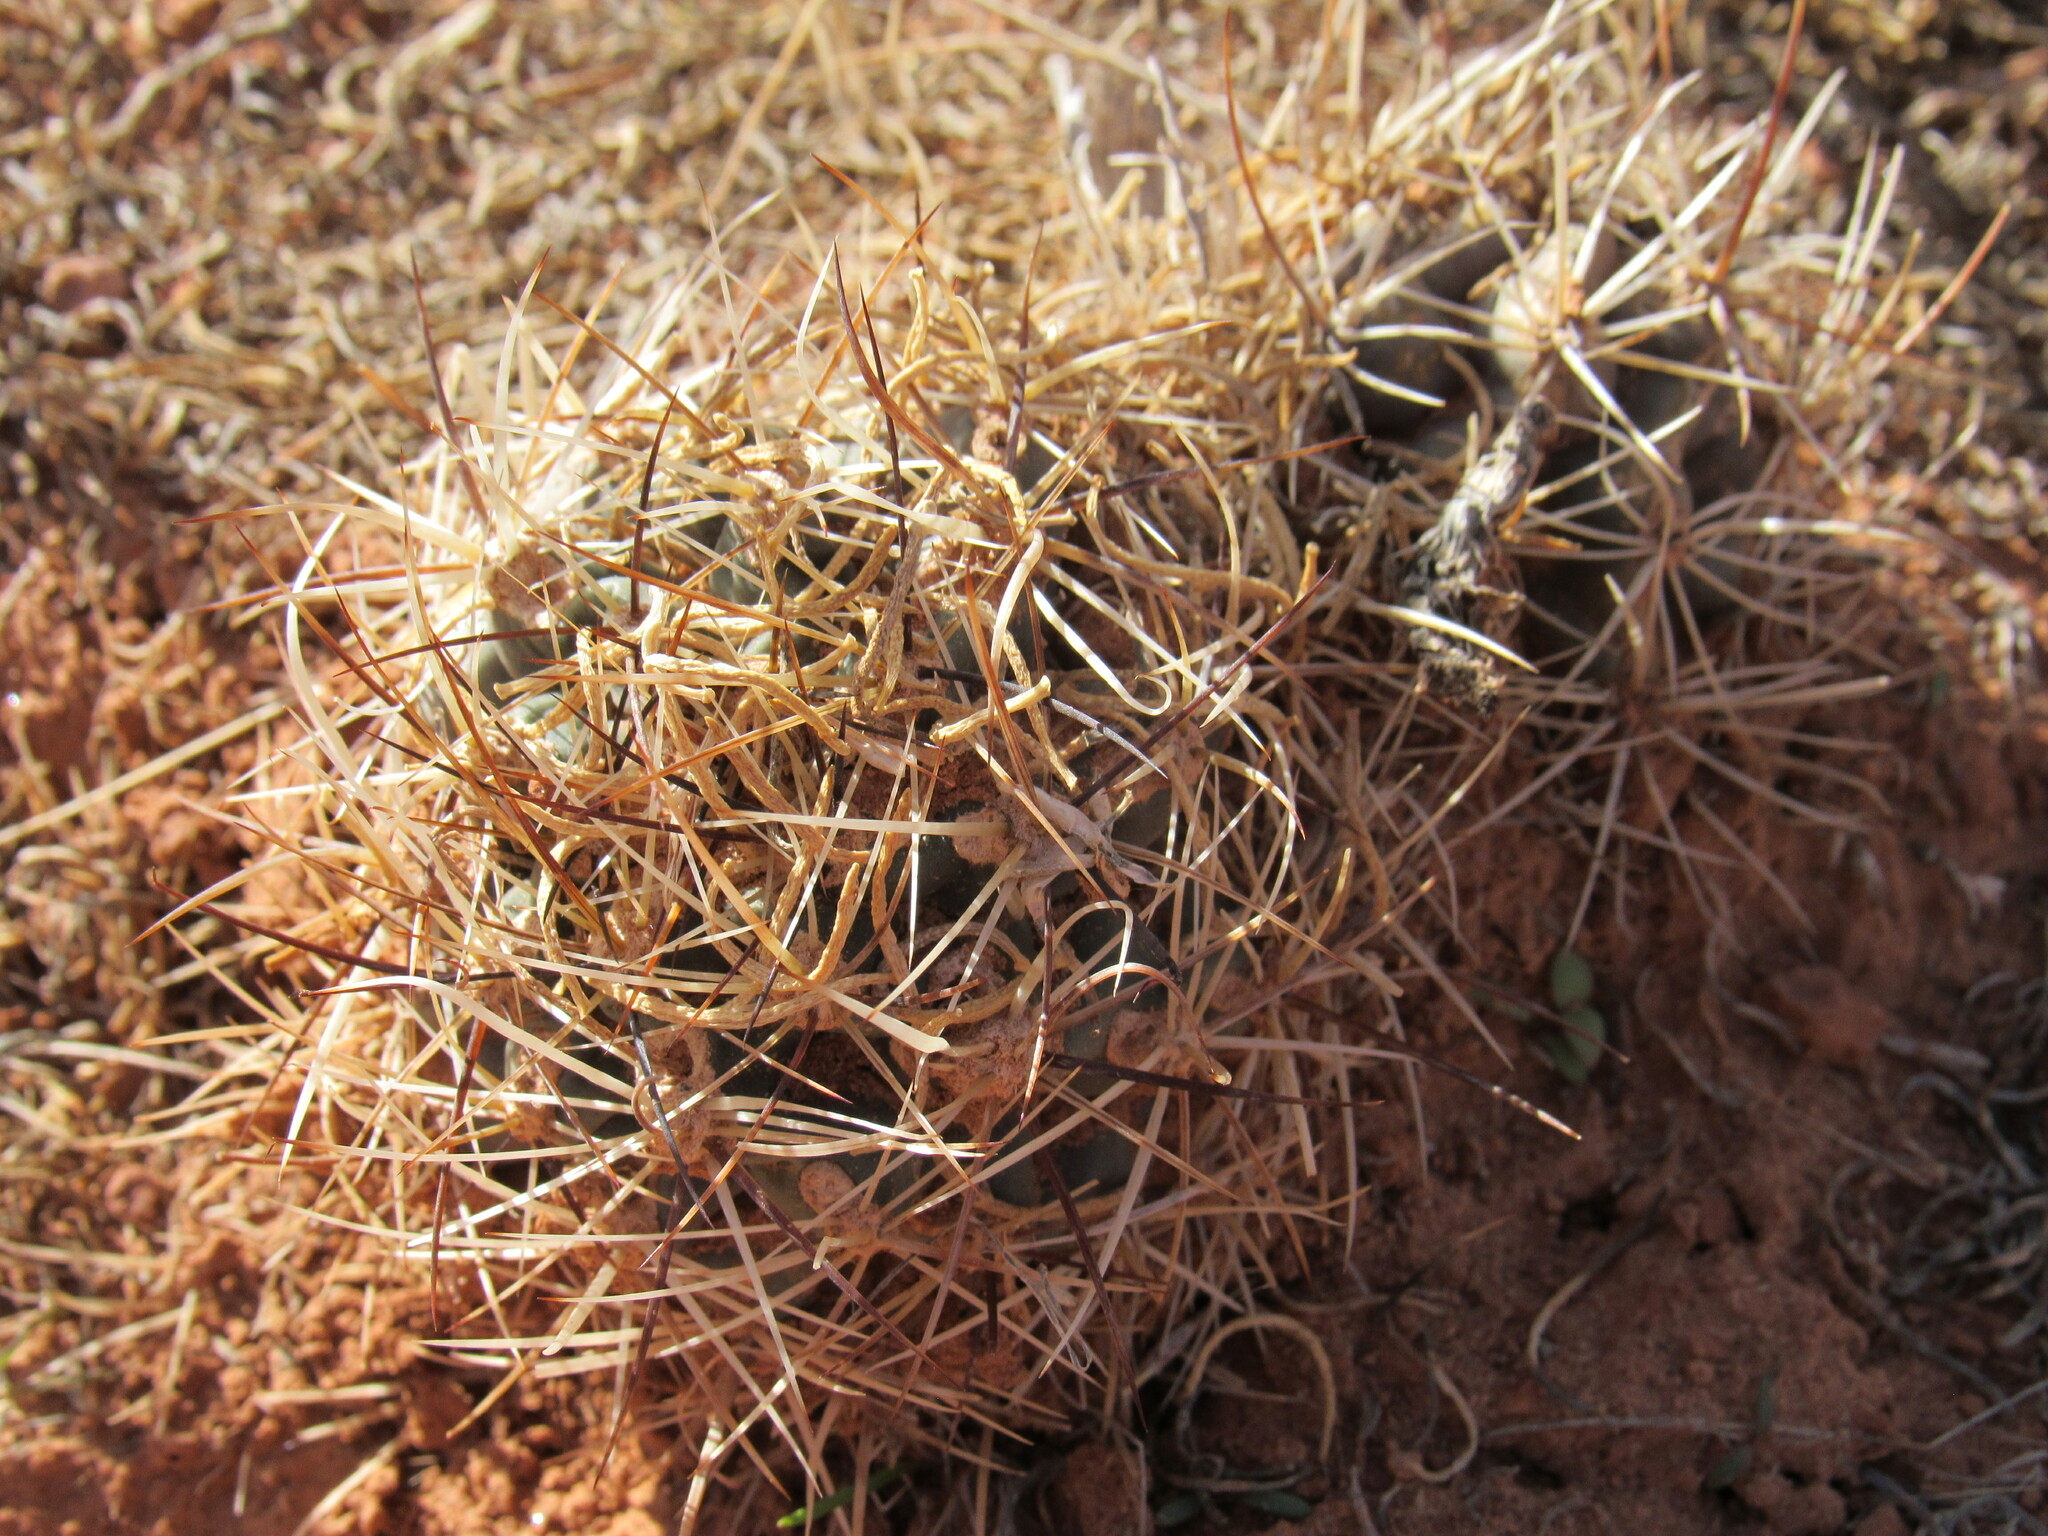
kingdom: Plantae
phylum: Tracheophyta
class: Magnoliopsida
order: Caryophyllales
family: Cactaceae
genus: Sclerocactus
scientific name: Sclerocactus glaucus
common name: Colorado hookless cactus
